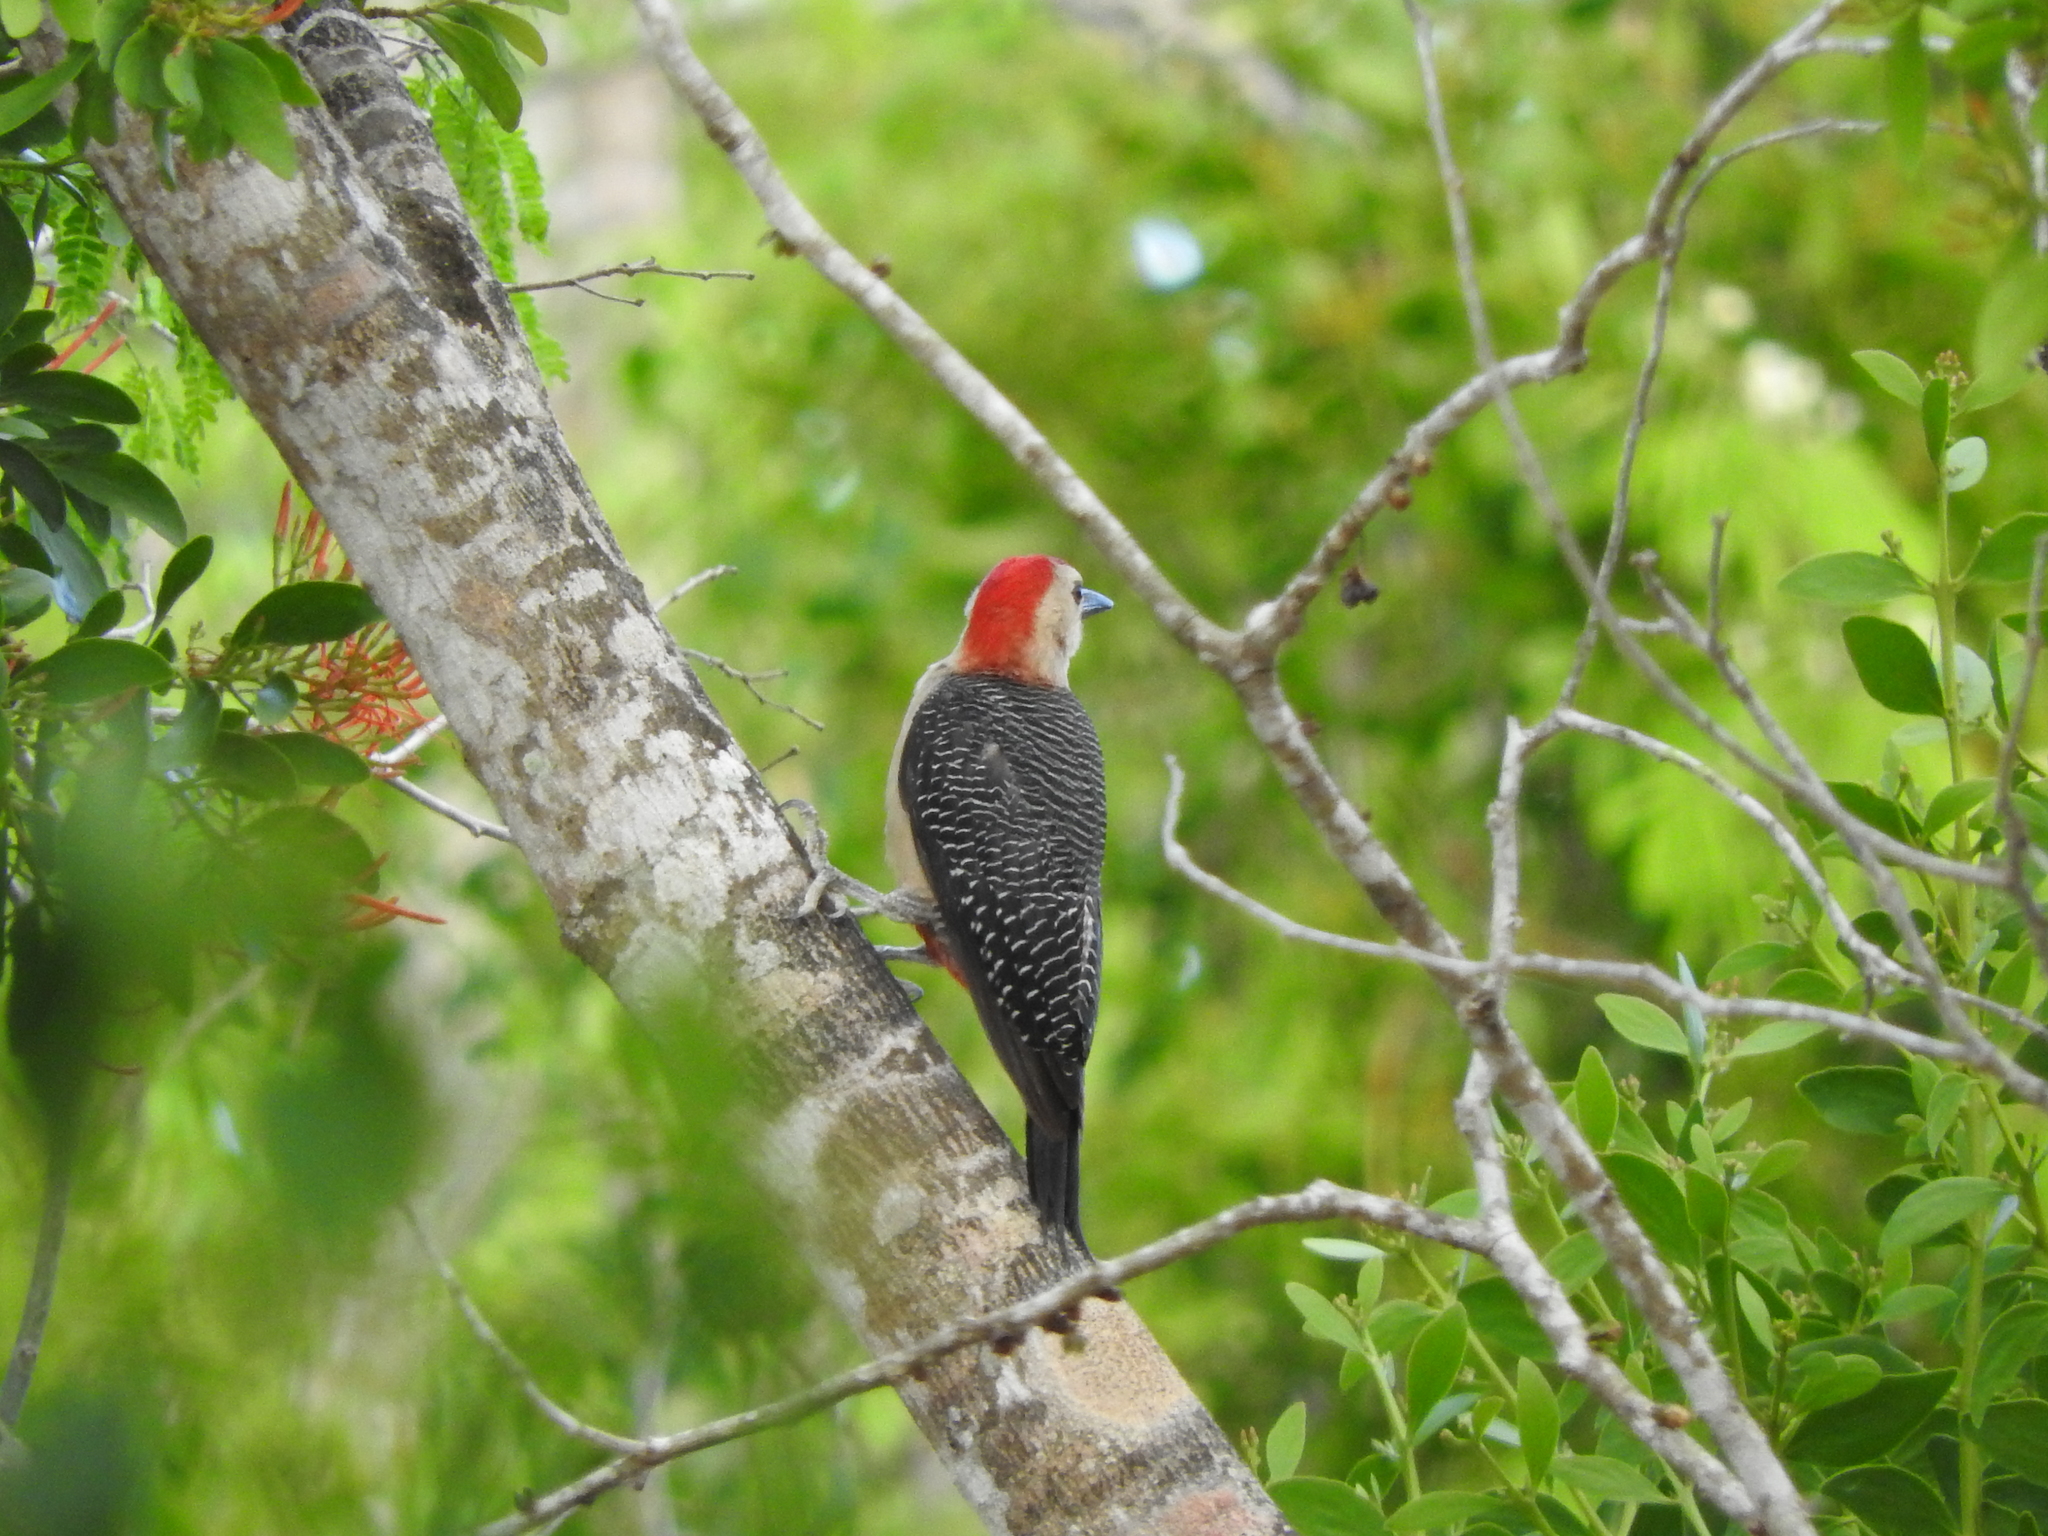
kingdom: Animalia
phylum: Chordata
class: Aves
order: Piciformes
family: Picidae
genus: Melanerpes
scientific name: Melanerpes santacruzi
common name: Velasquez's woodpecker
